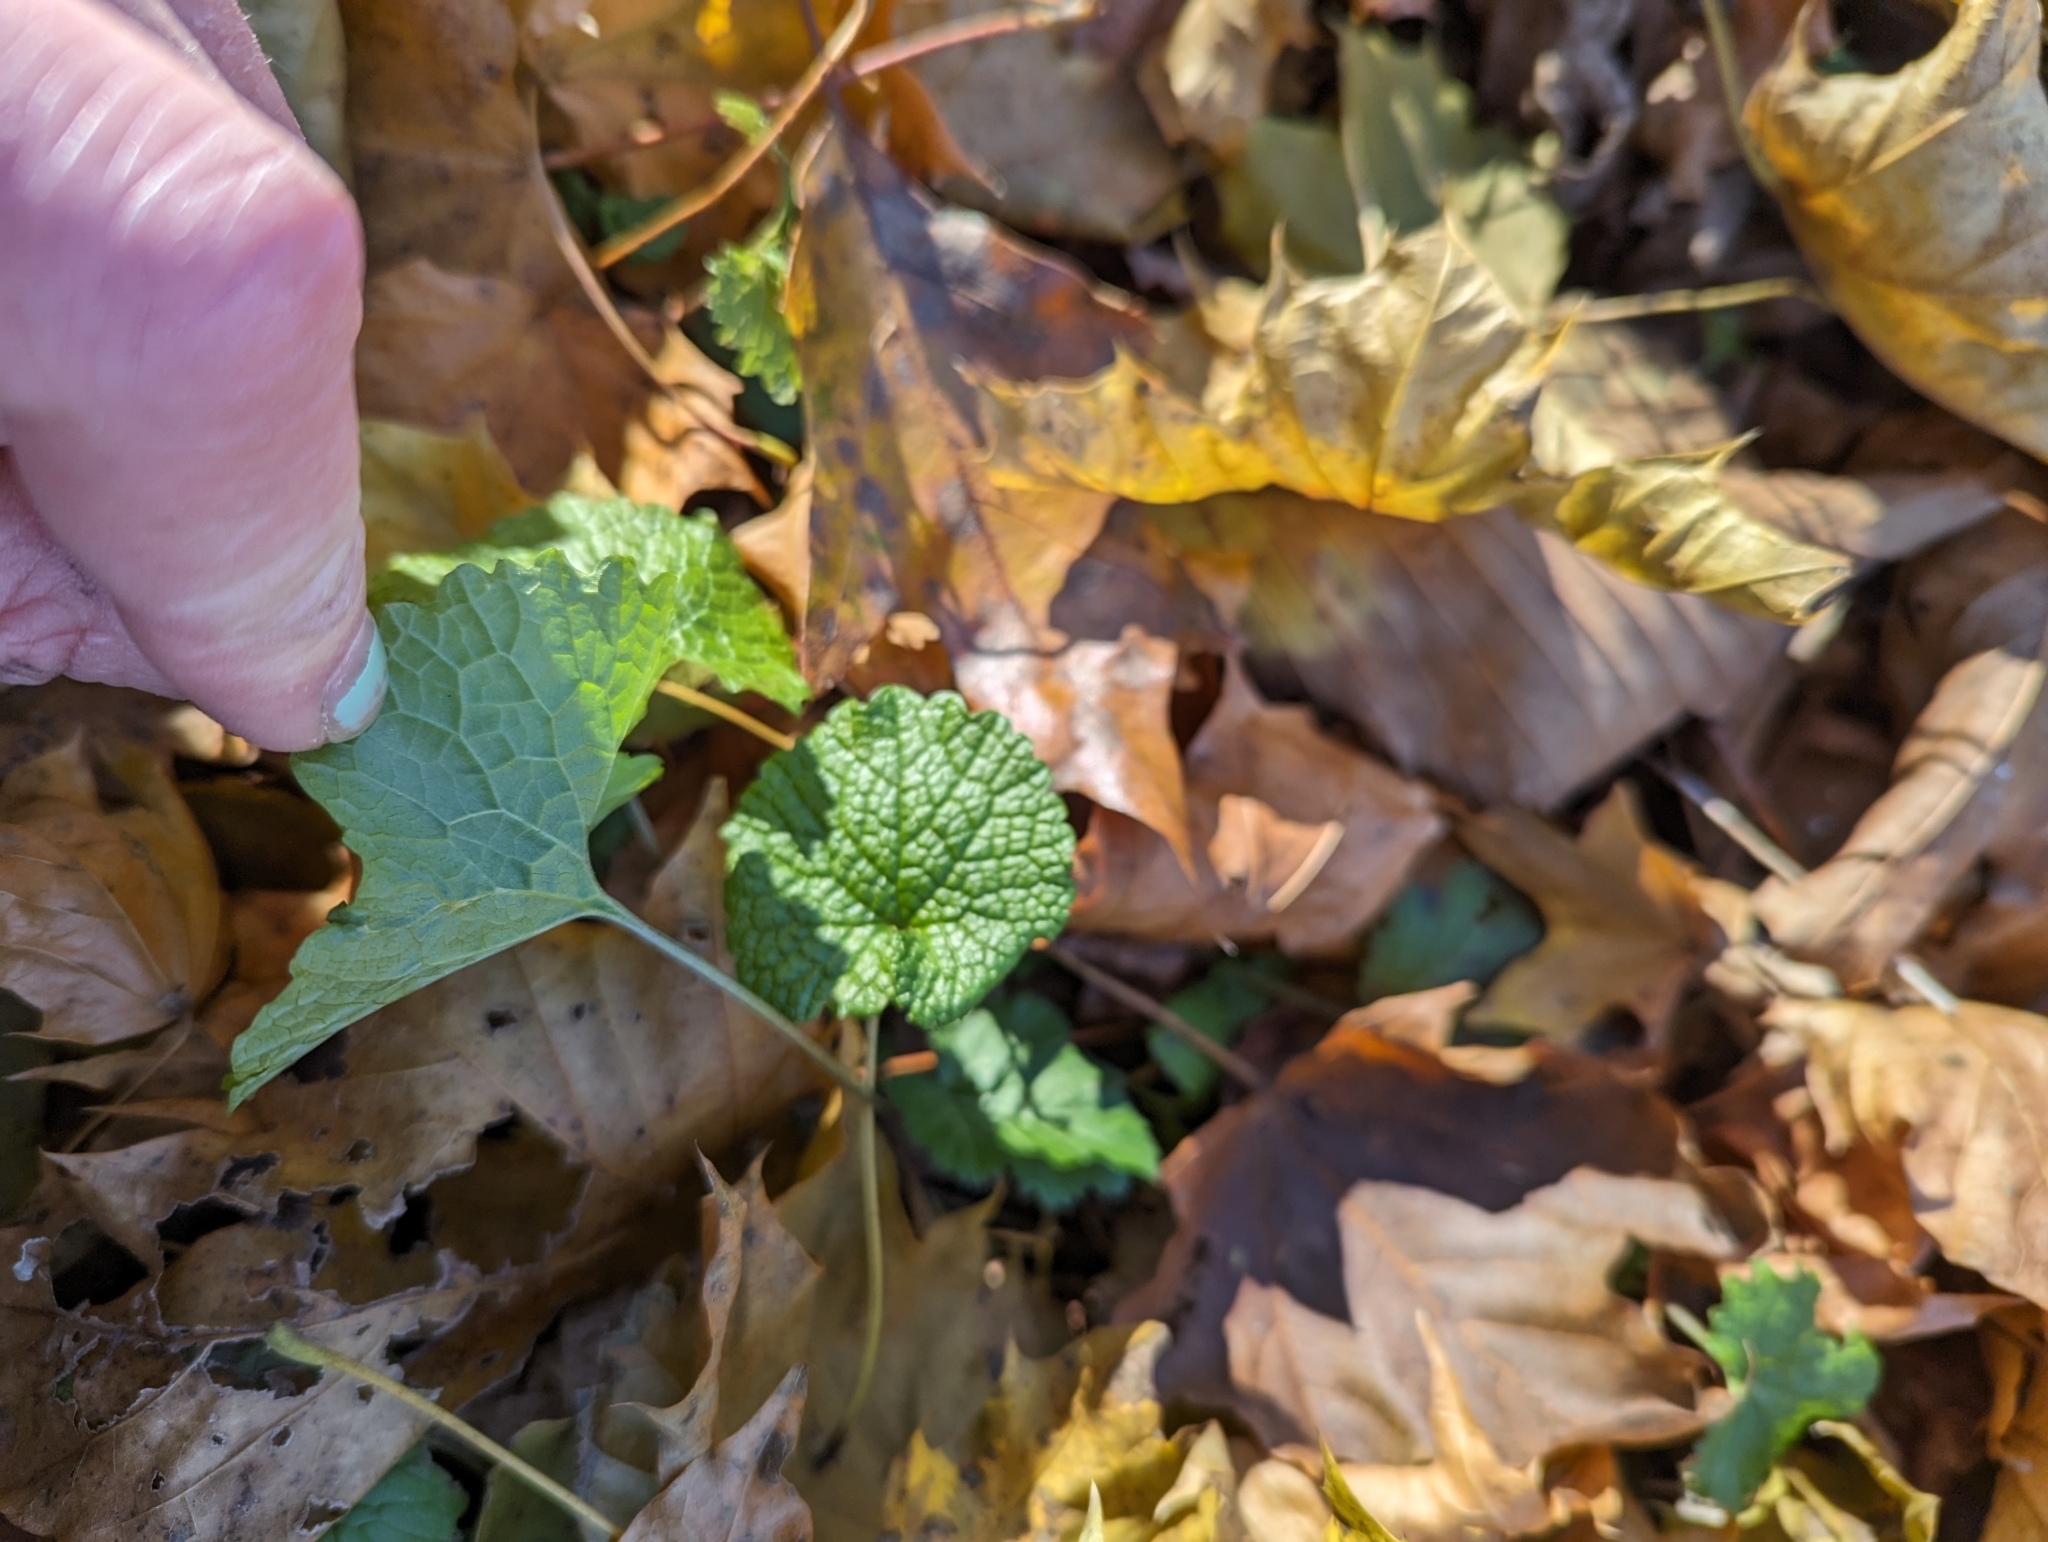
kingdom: Plantae
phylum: Tracheophyta
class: Magnoliopsida
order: Brassicales
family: Brassicaceae
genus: Alliaria
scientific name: Alliaria petiolata
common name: Garlic mustard
